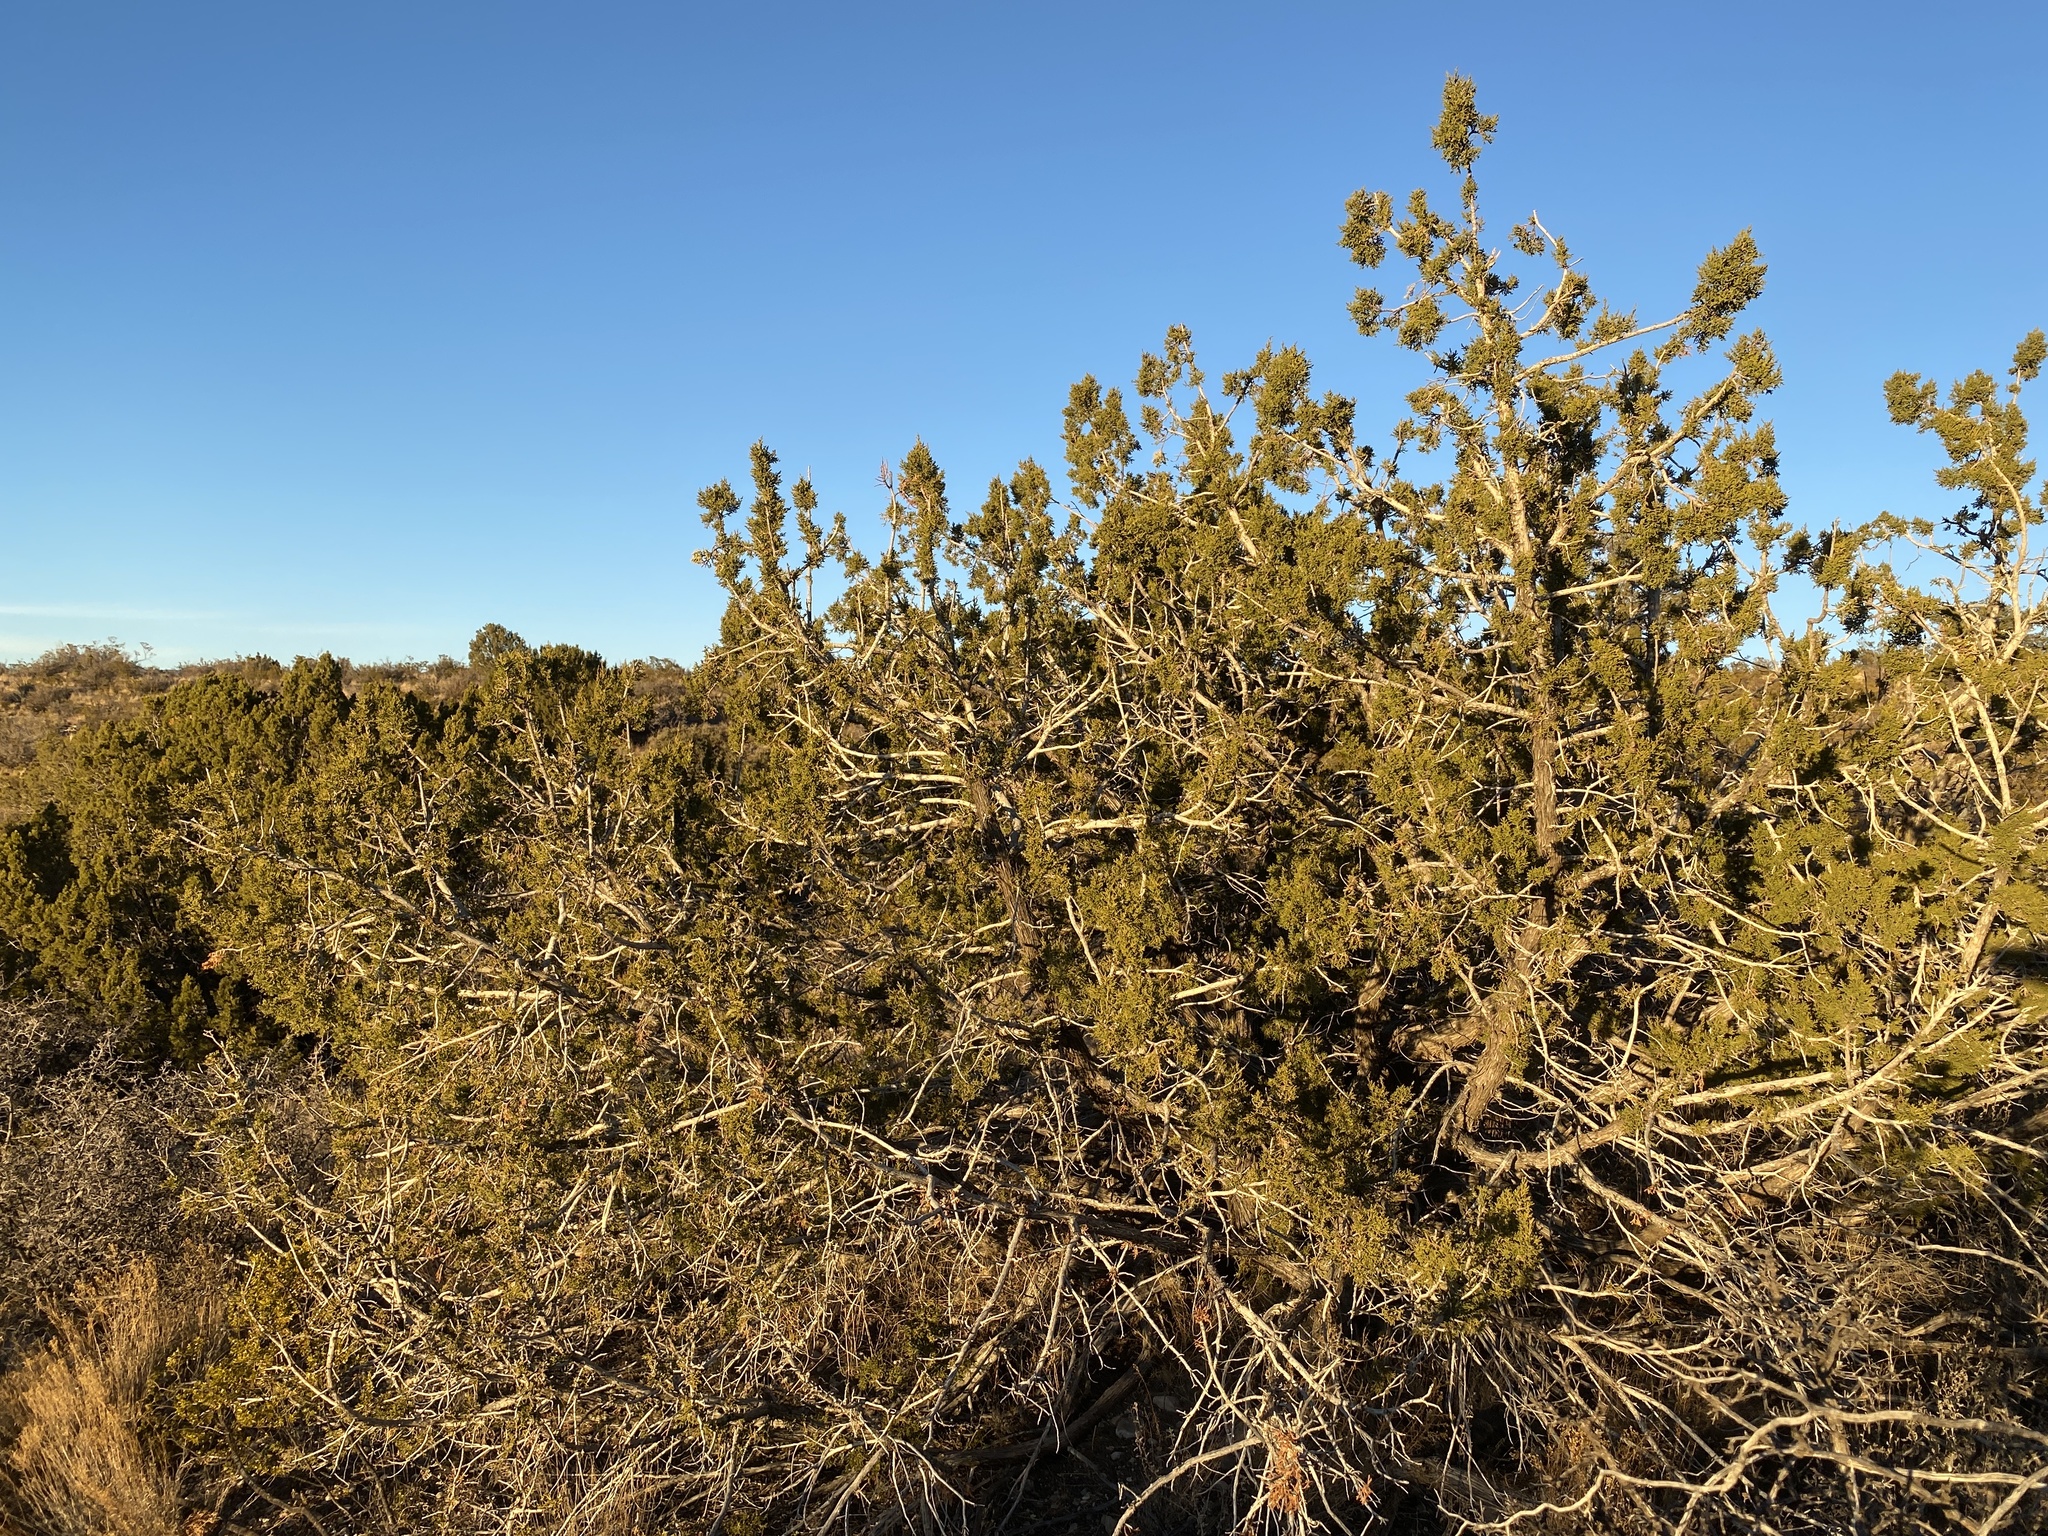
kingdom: Plantae
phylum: Tracheophyta
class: Pinopsida
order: Pinales
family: Cupressaceae
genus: Juniperus
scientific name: Juniperus monosperma
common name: One-seed juniper
